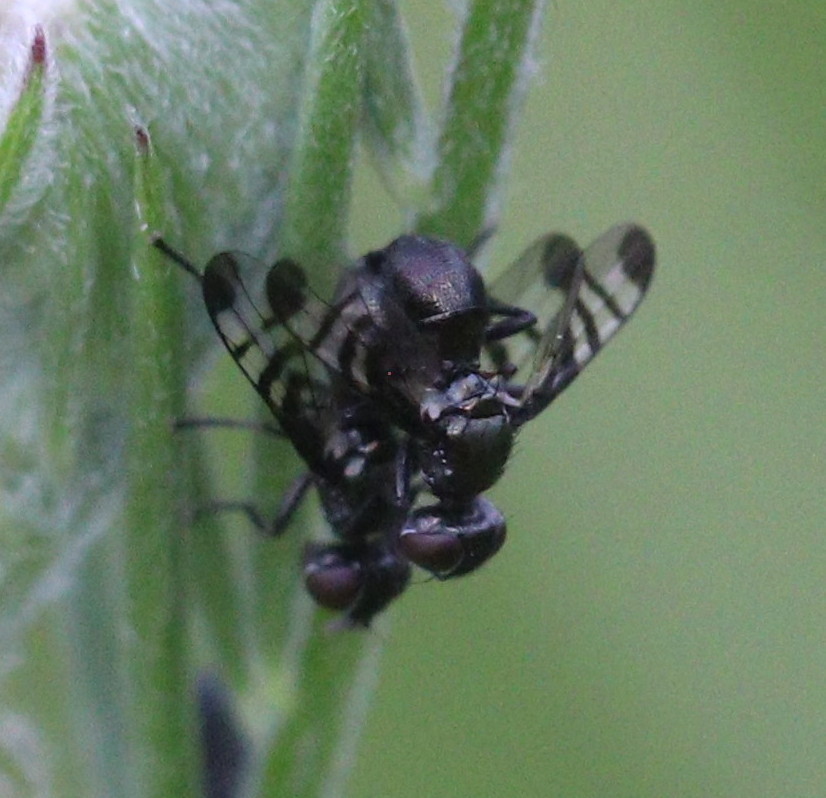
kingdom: Animalia
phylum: Arthropoda
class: Insecta
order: Diptera
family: Platystomatidae
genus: Rivellia
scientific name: Rivellia syngenesiae
